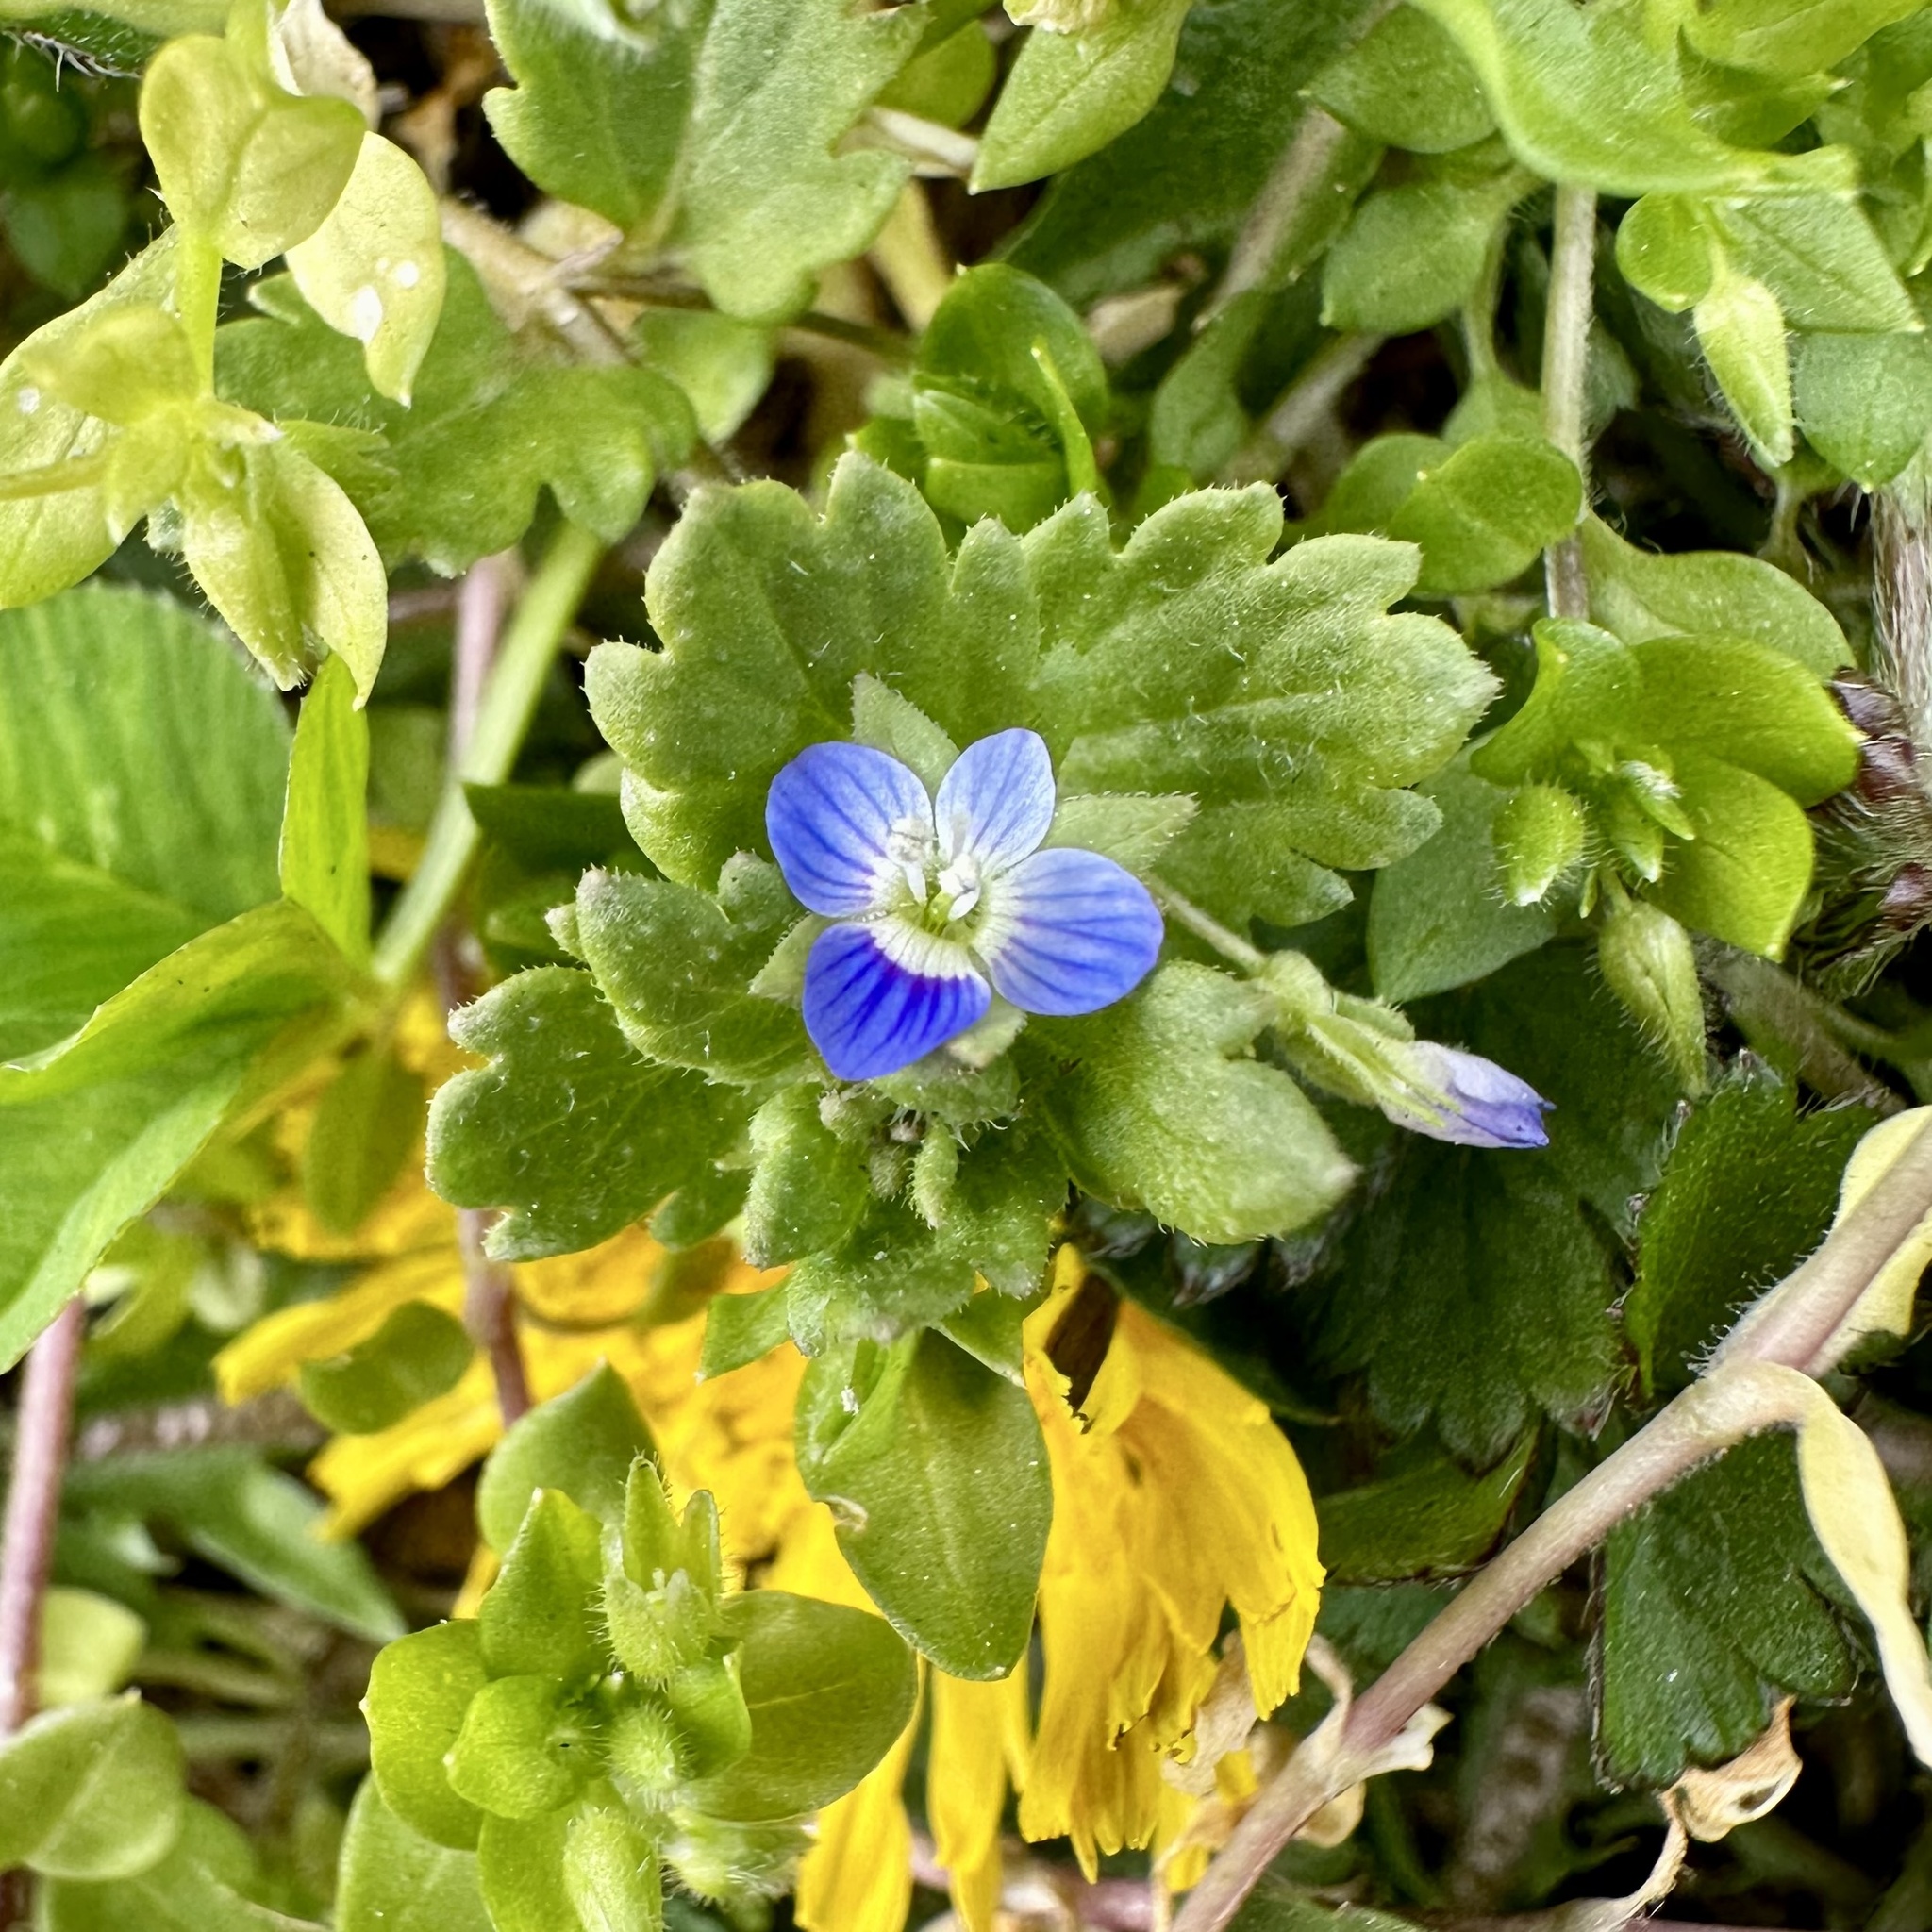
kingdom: Plantae
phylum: Tracheophyta
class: Magnoliopsida
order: Lamiales
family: Plantaginaceae
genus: Veronica
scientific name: Veronica polita
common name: Grey field-speedwell
